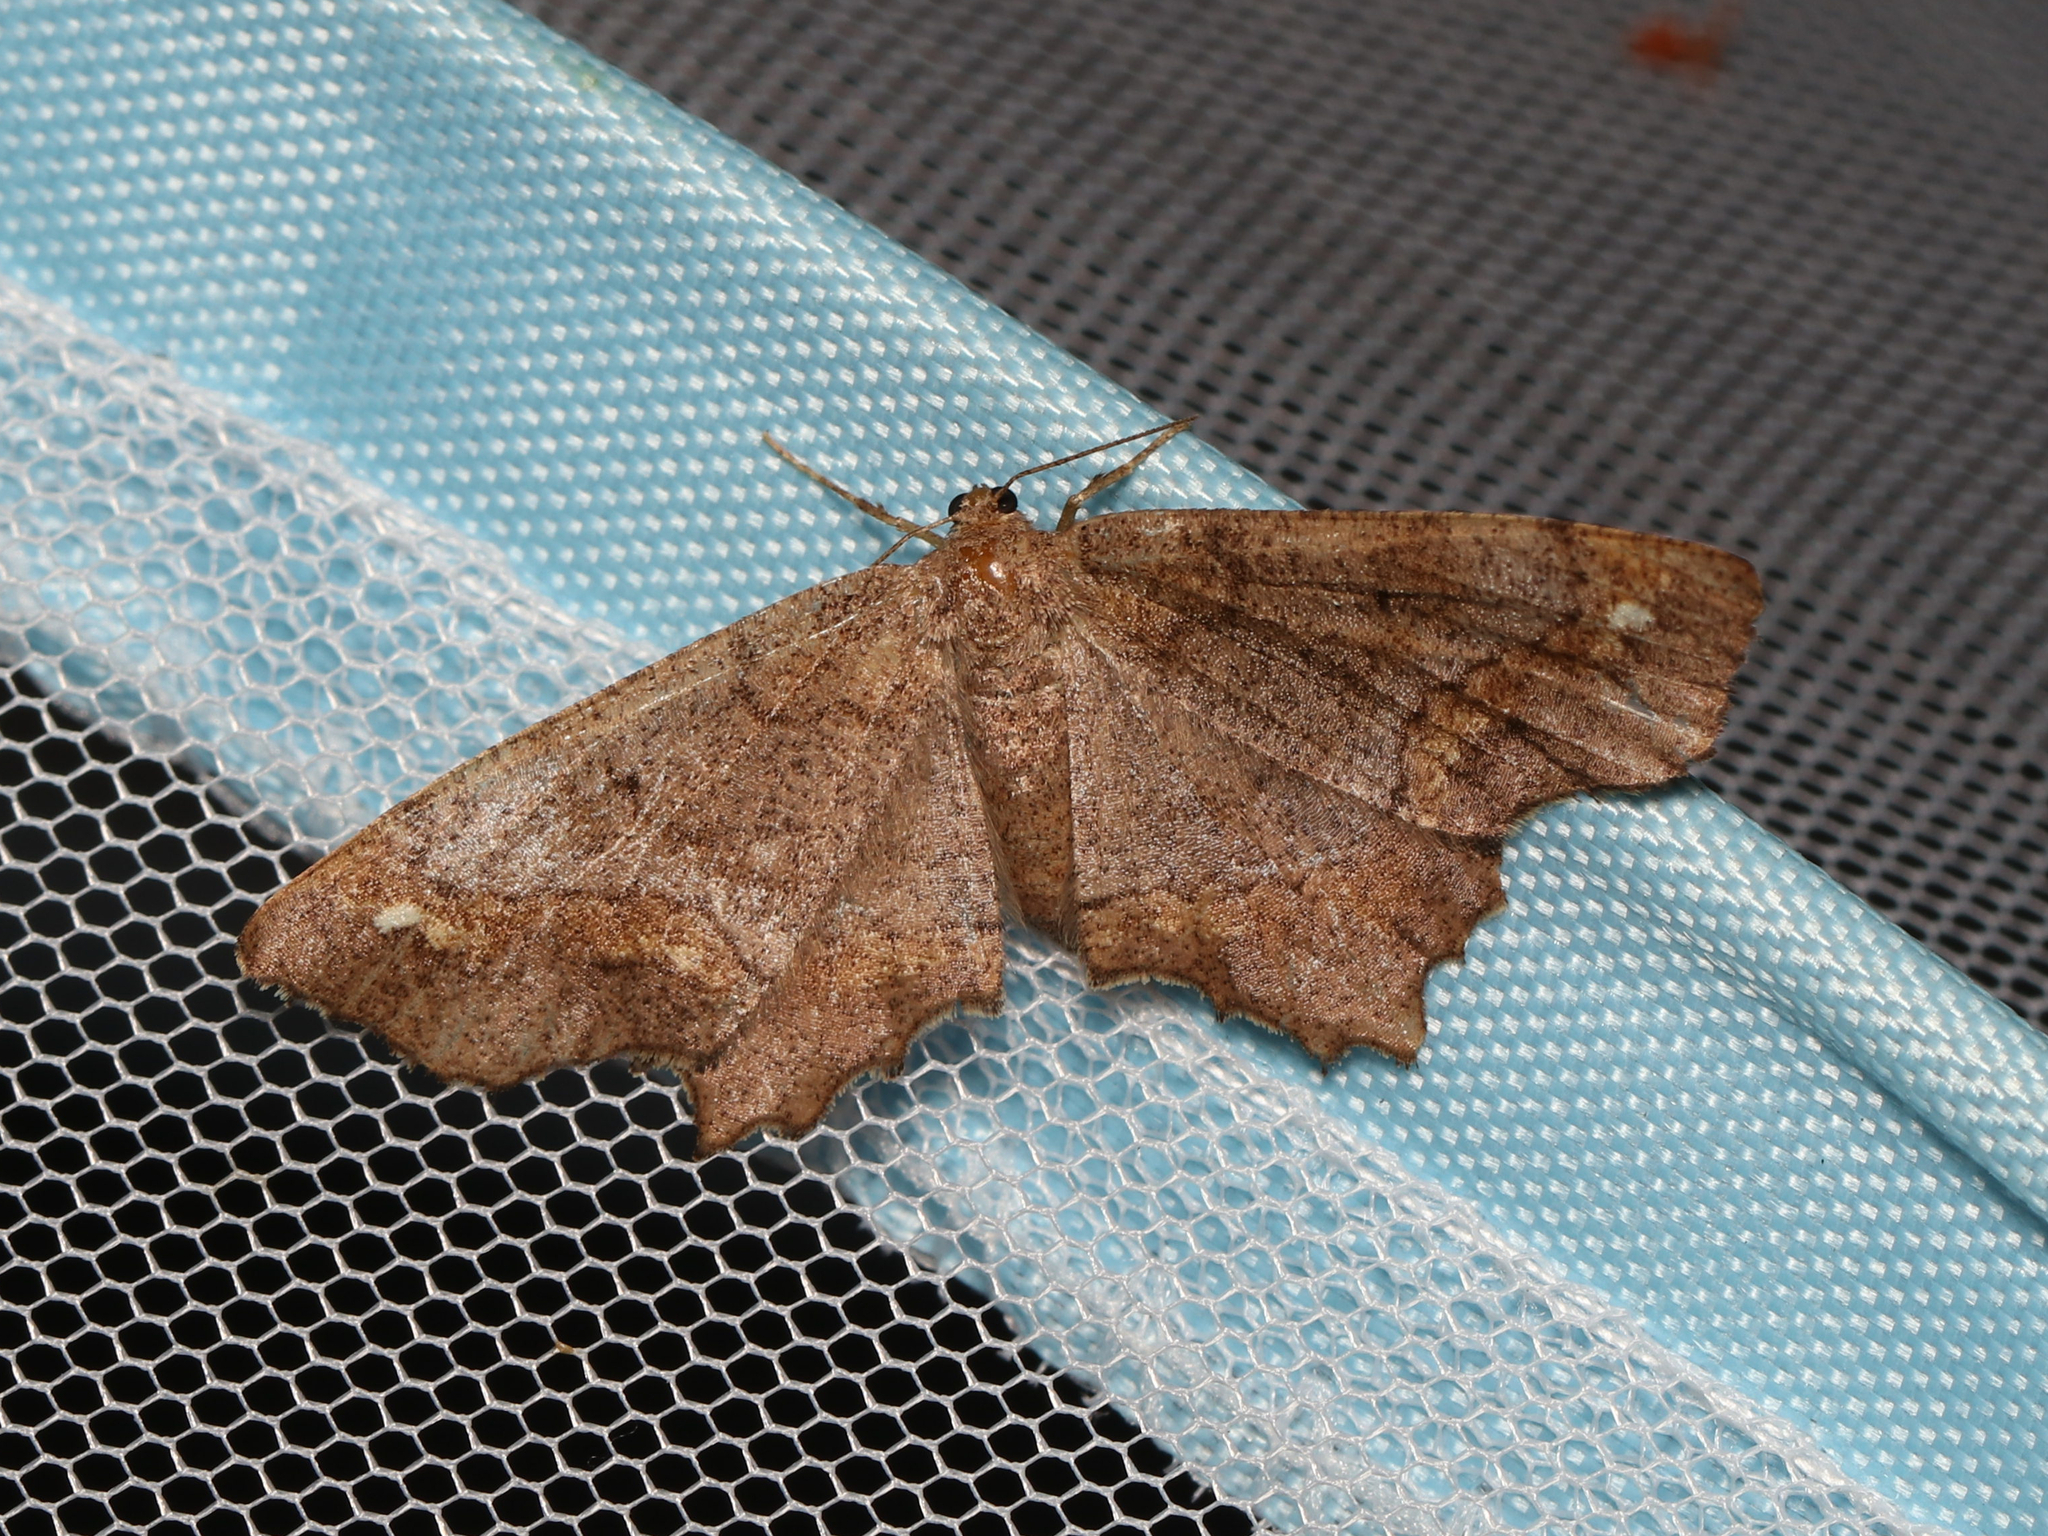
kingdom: Animalia
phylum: Arthropoda
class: Insecta
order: Lepidoptera
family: Geometridae
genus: Hypagyrtis
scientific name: Hypagyrtis esther
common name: Esther moth
